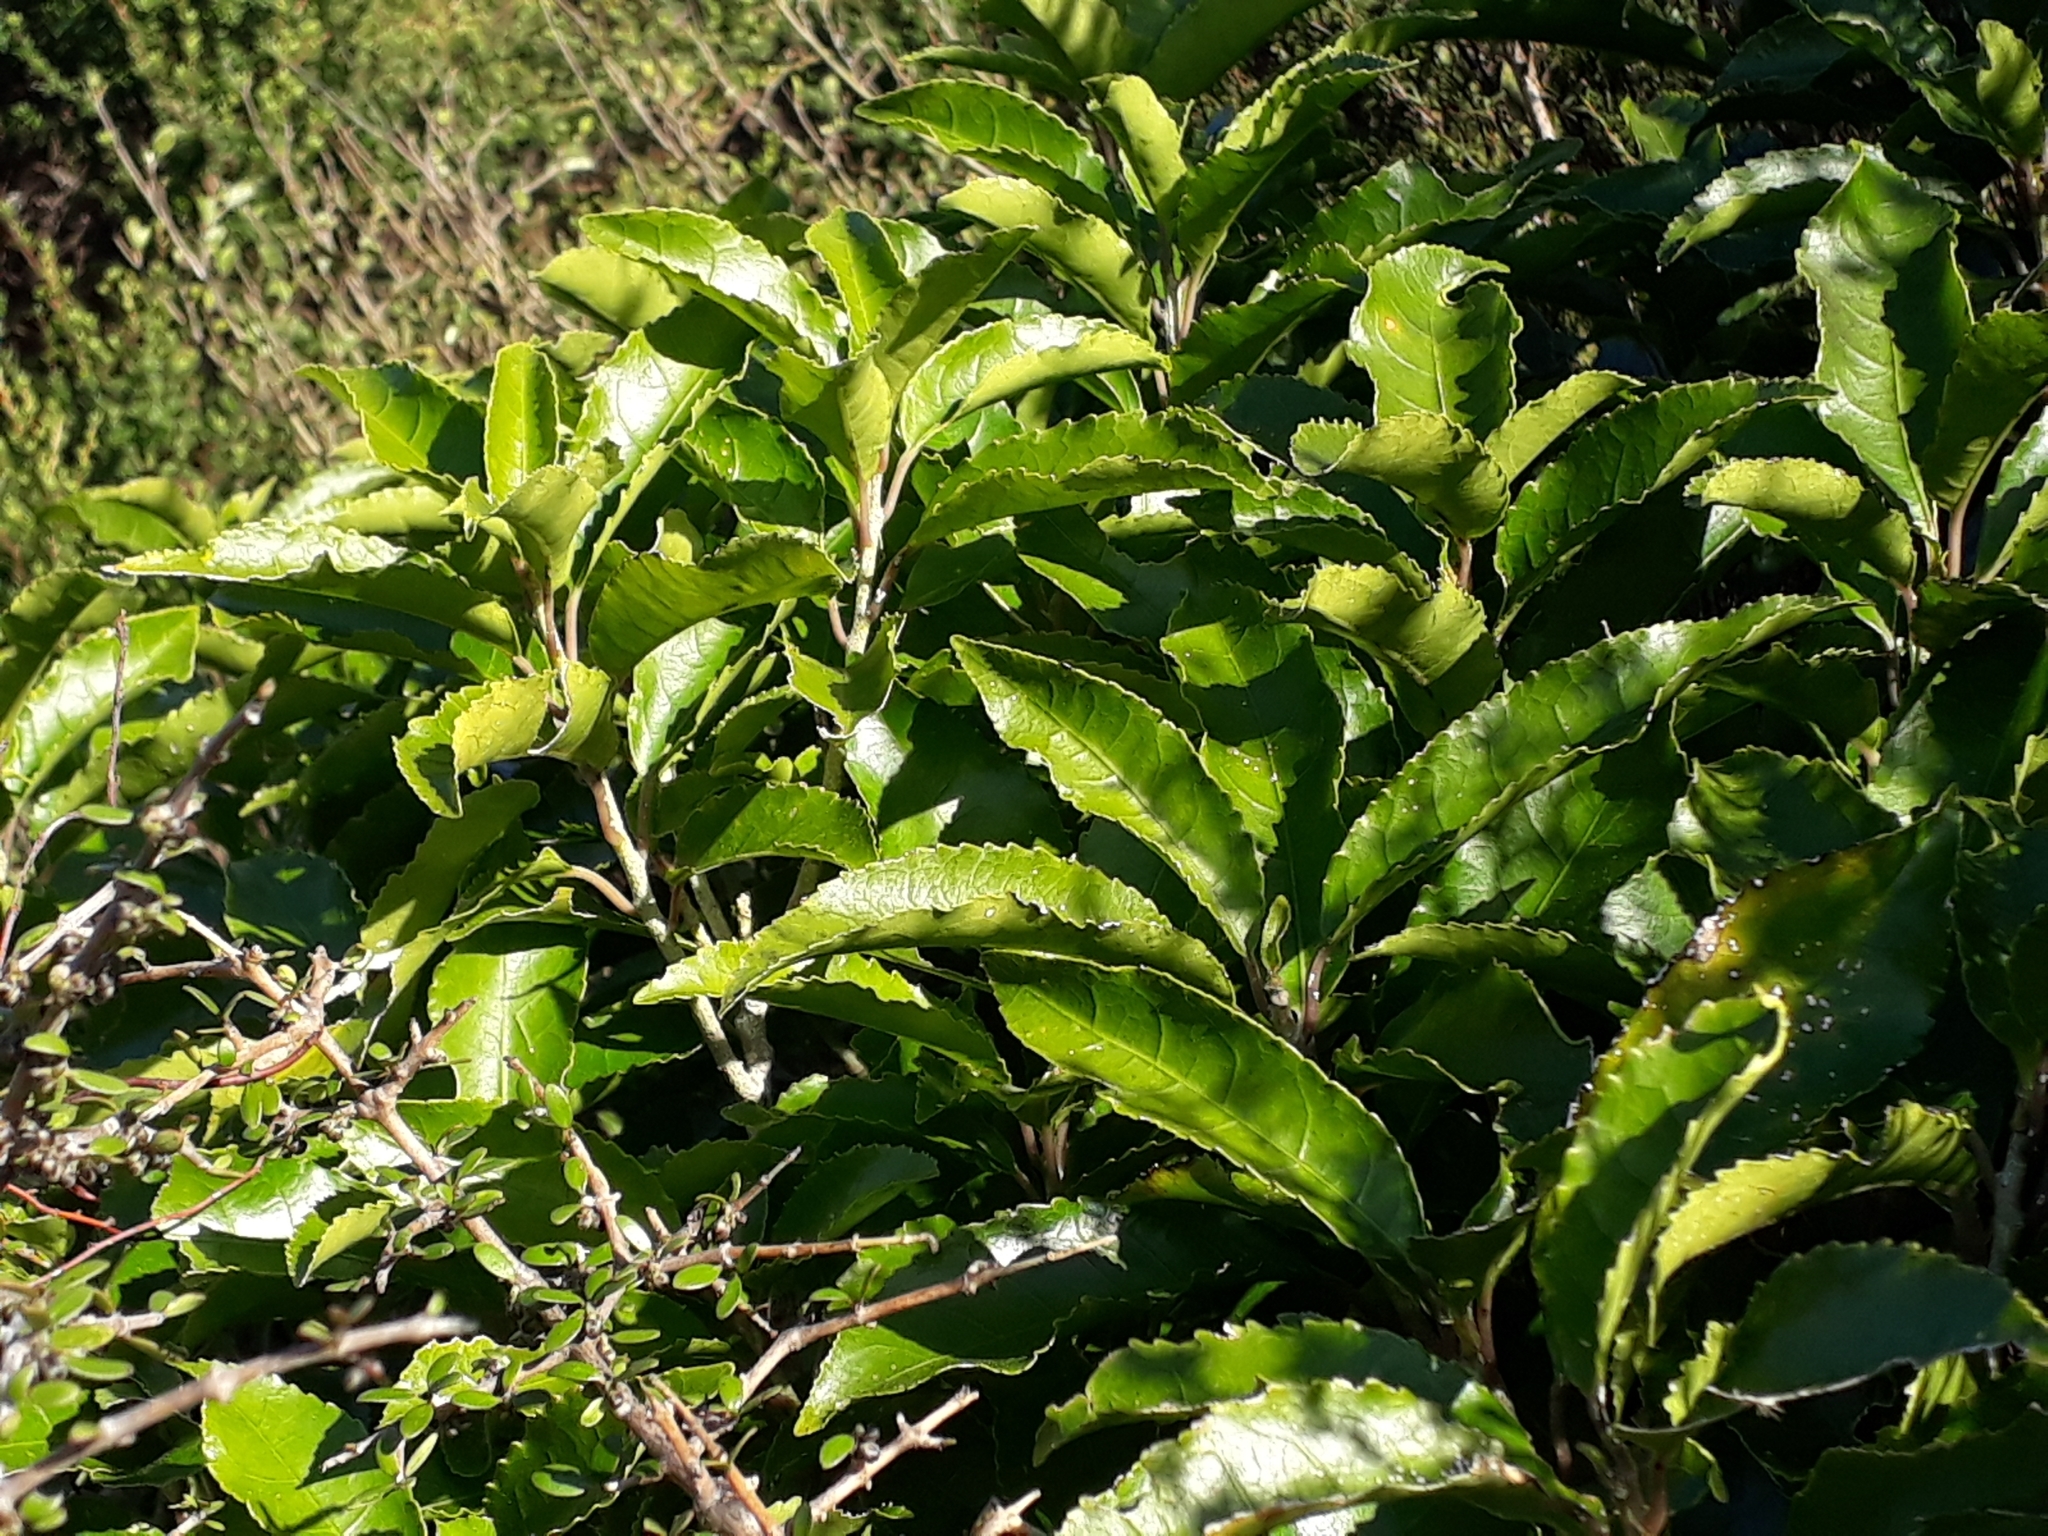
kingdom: Plantae
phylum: Tracheophyta
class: Magnoliopsida
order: Malpighiales
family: Violaceae
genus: Melicytus
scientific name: Melicytus ramiflorus
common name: Mahoe
